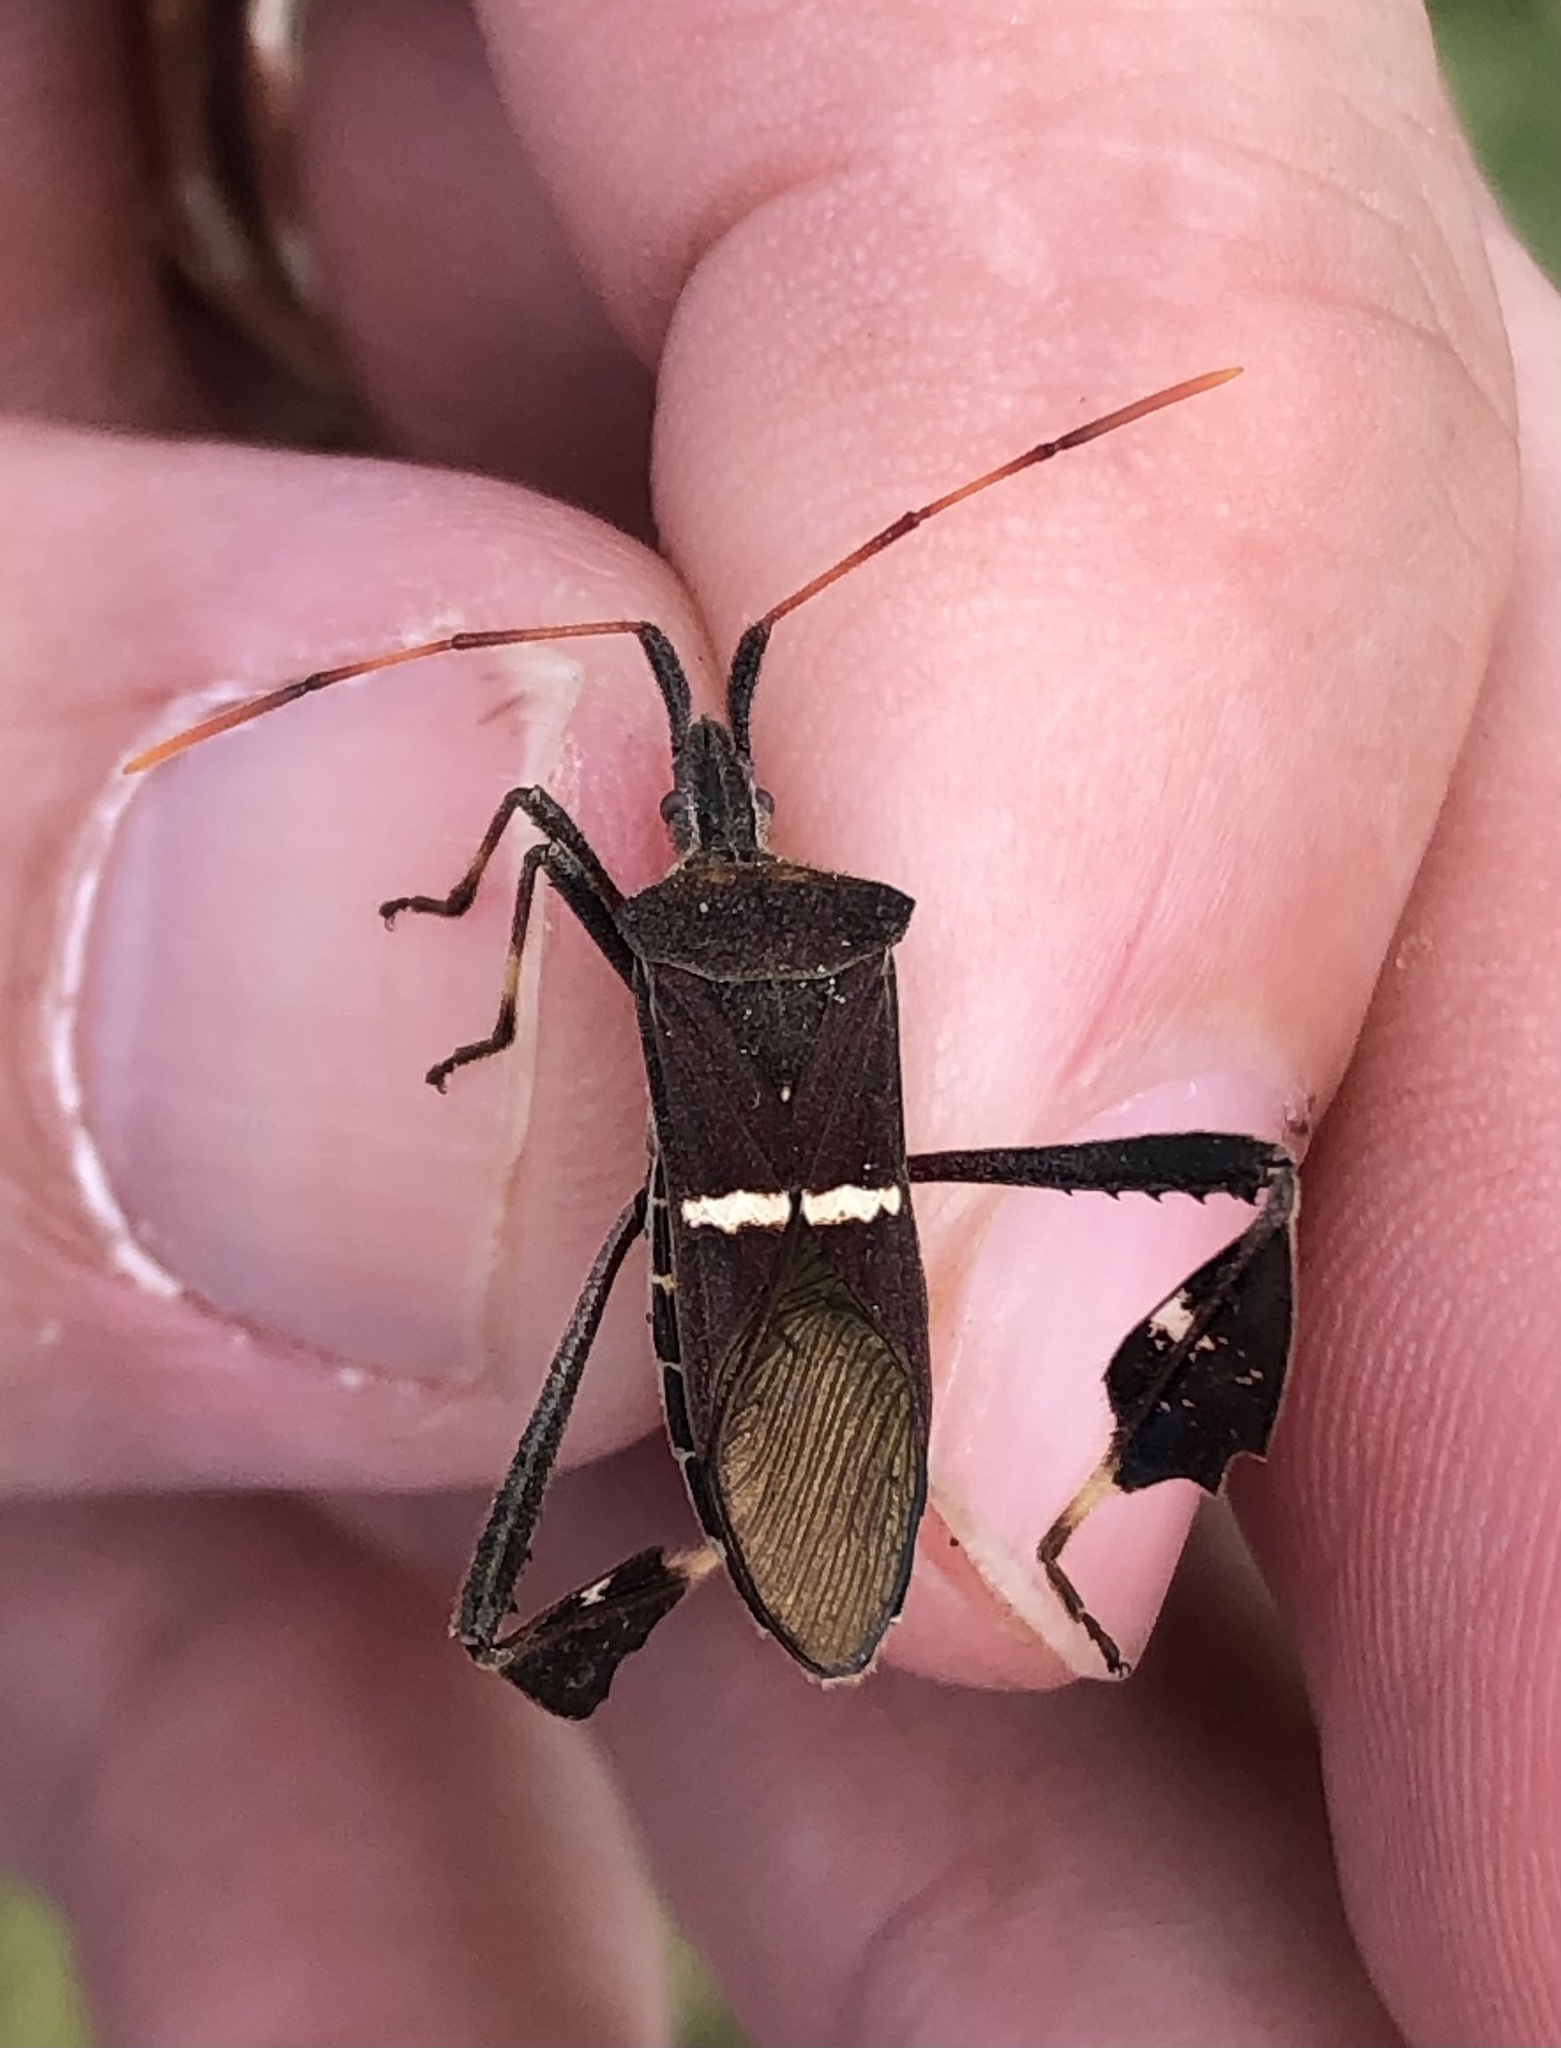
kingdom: Animalia
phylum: Arthropoda
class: Insecta
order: Hemiptera
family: Coreidae
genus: Leptoglossus
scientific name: Leptoglossus phyllopus
